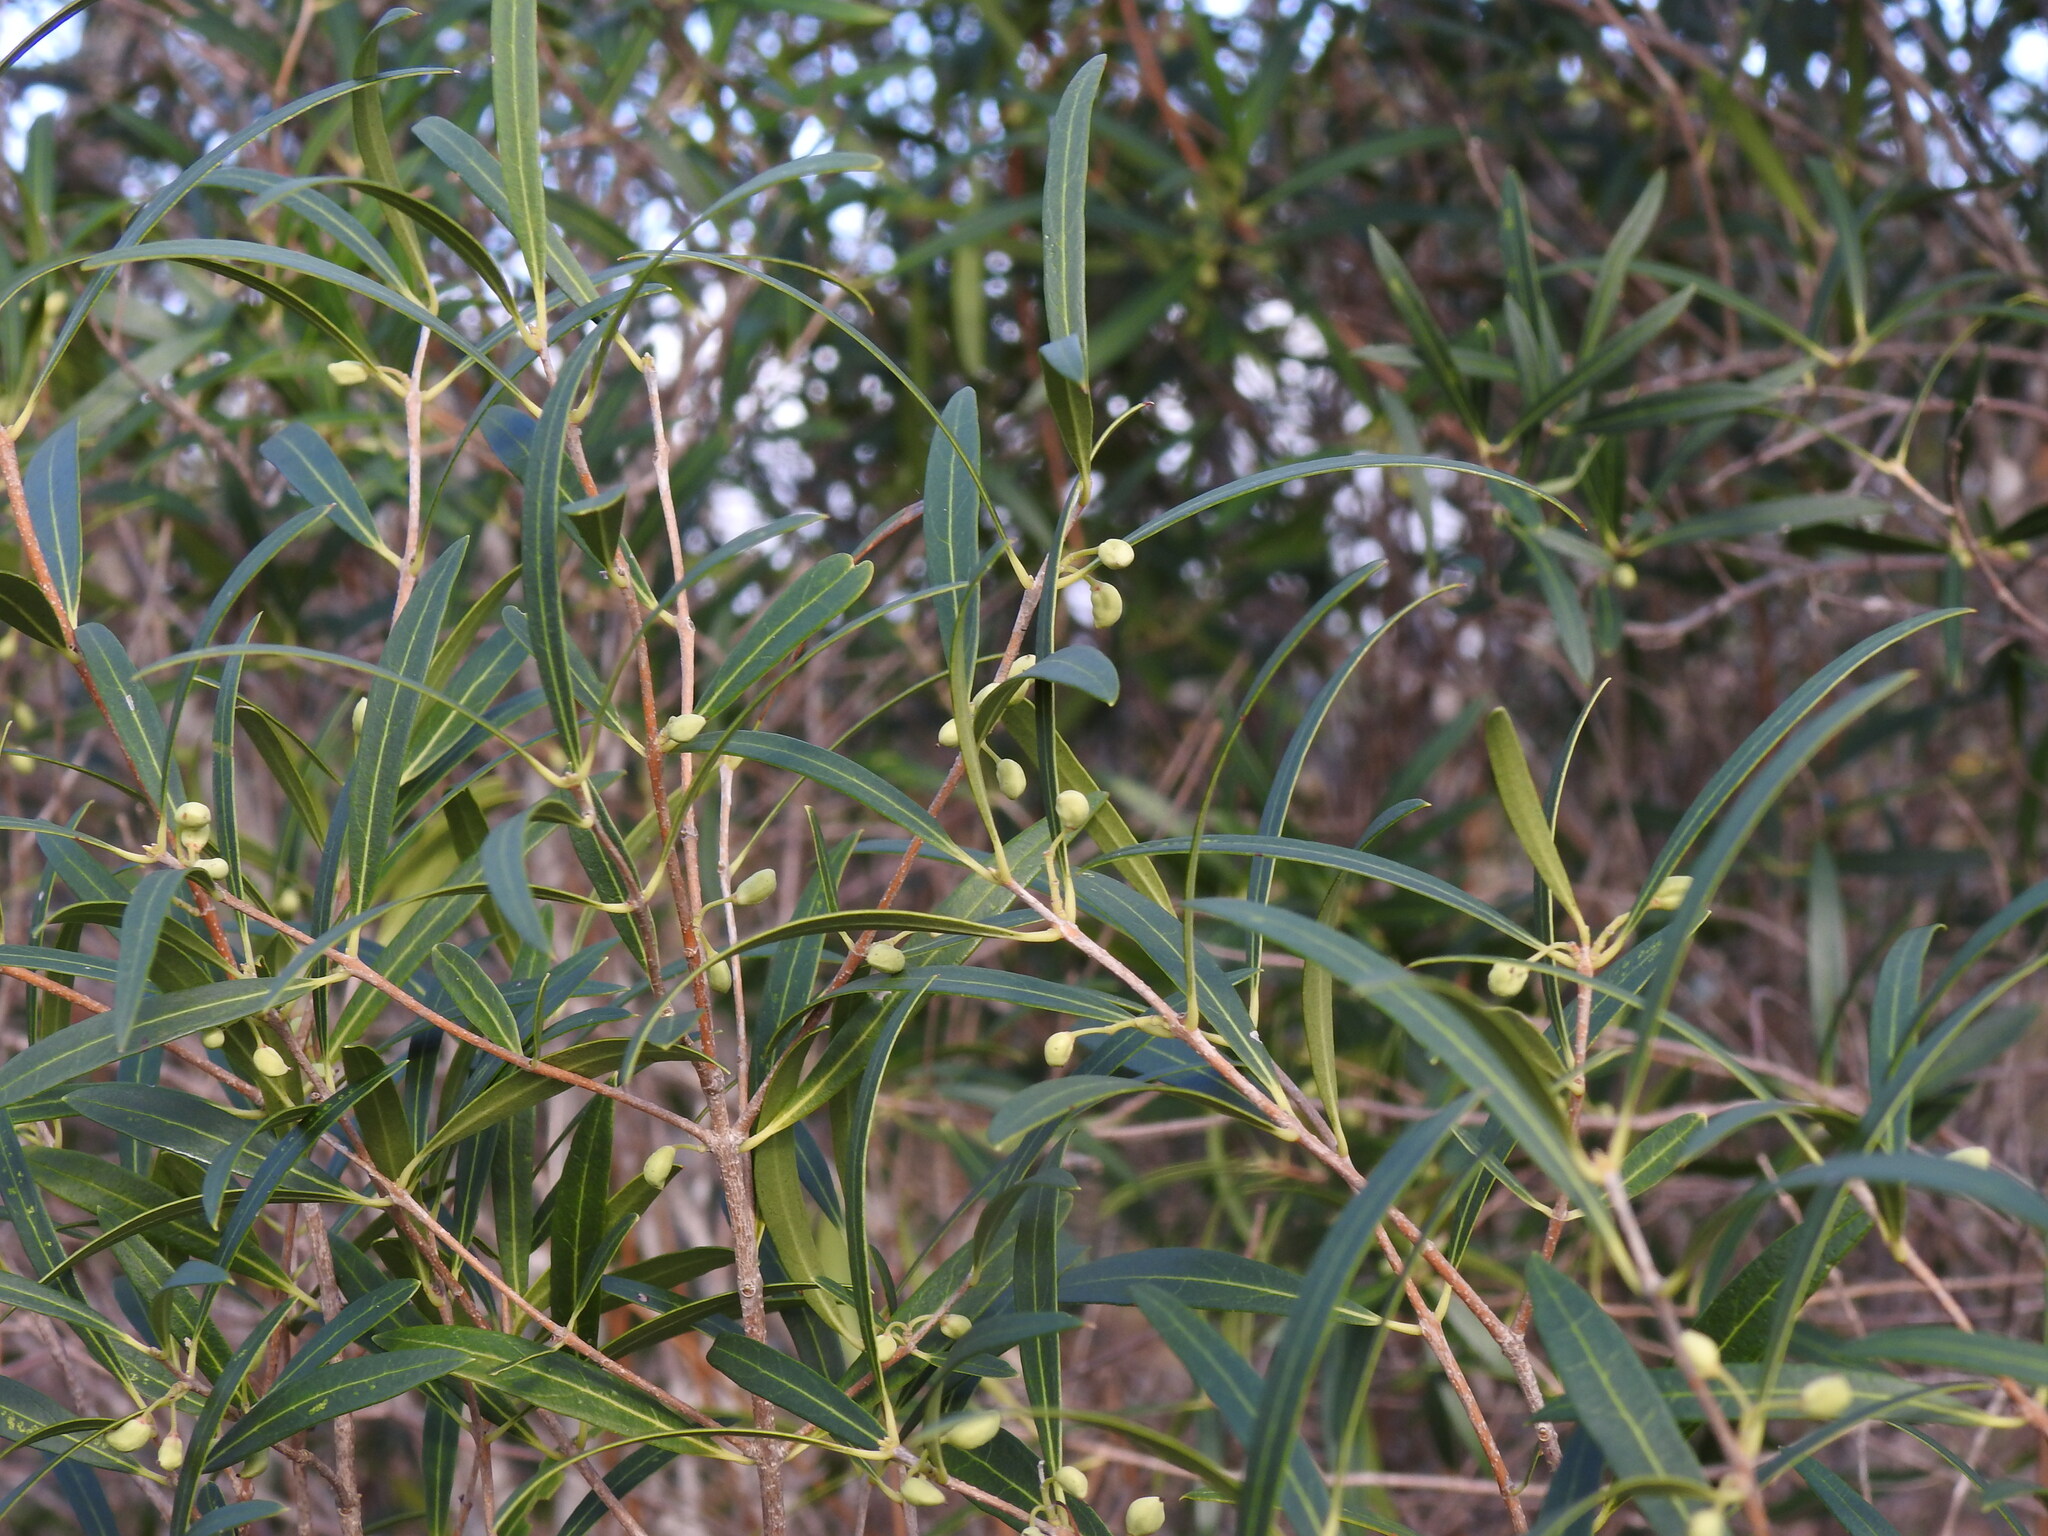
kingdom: Plantae
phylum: Tracheophyta
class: Magnoliopsida
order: Lamiales
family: Oleaceae
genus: Phillyrea
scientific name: Phillyrea angustifolia
